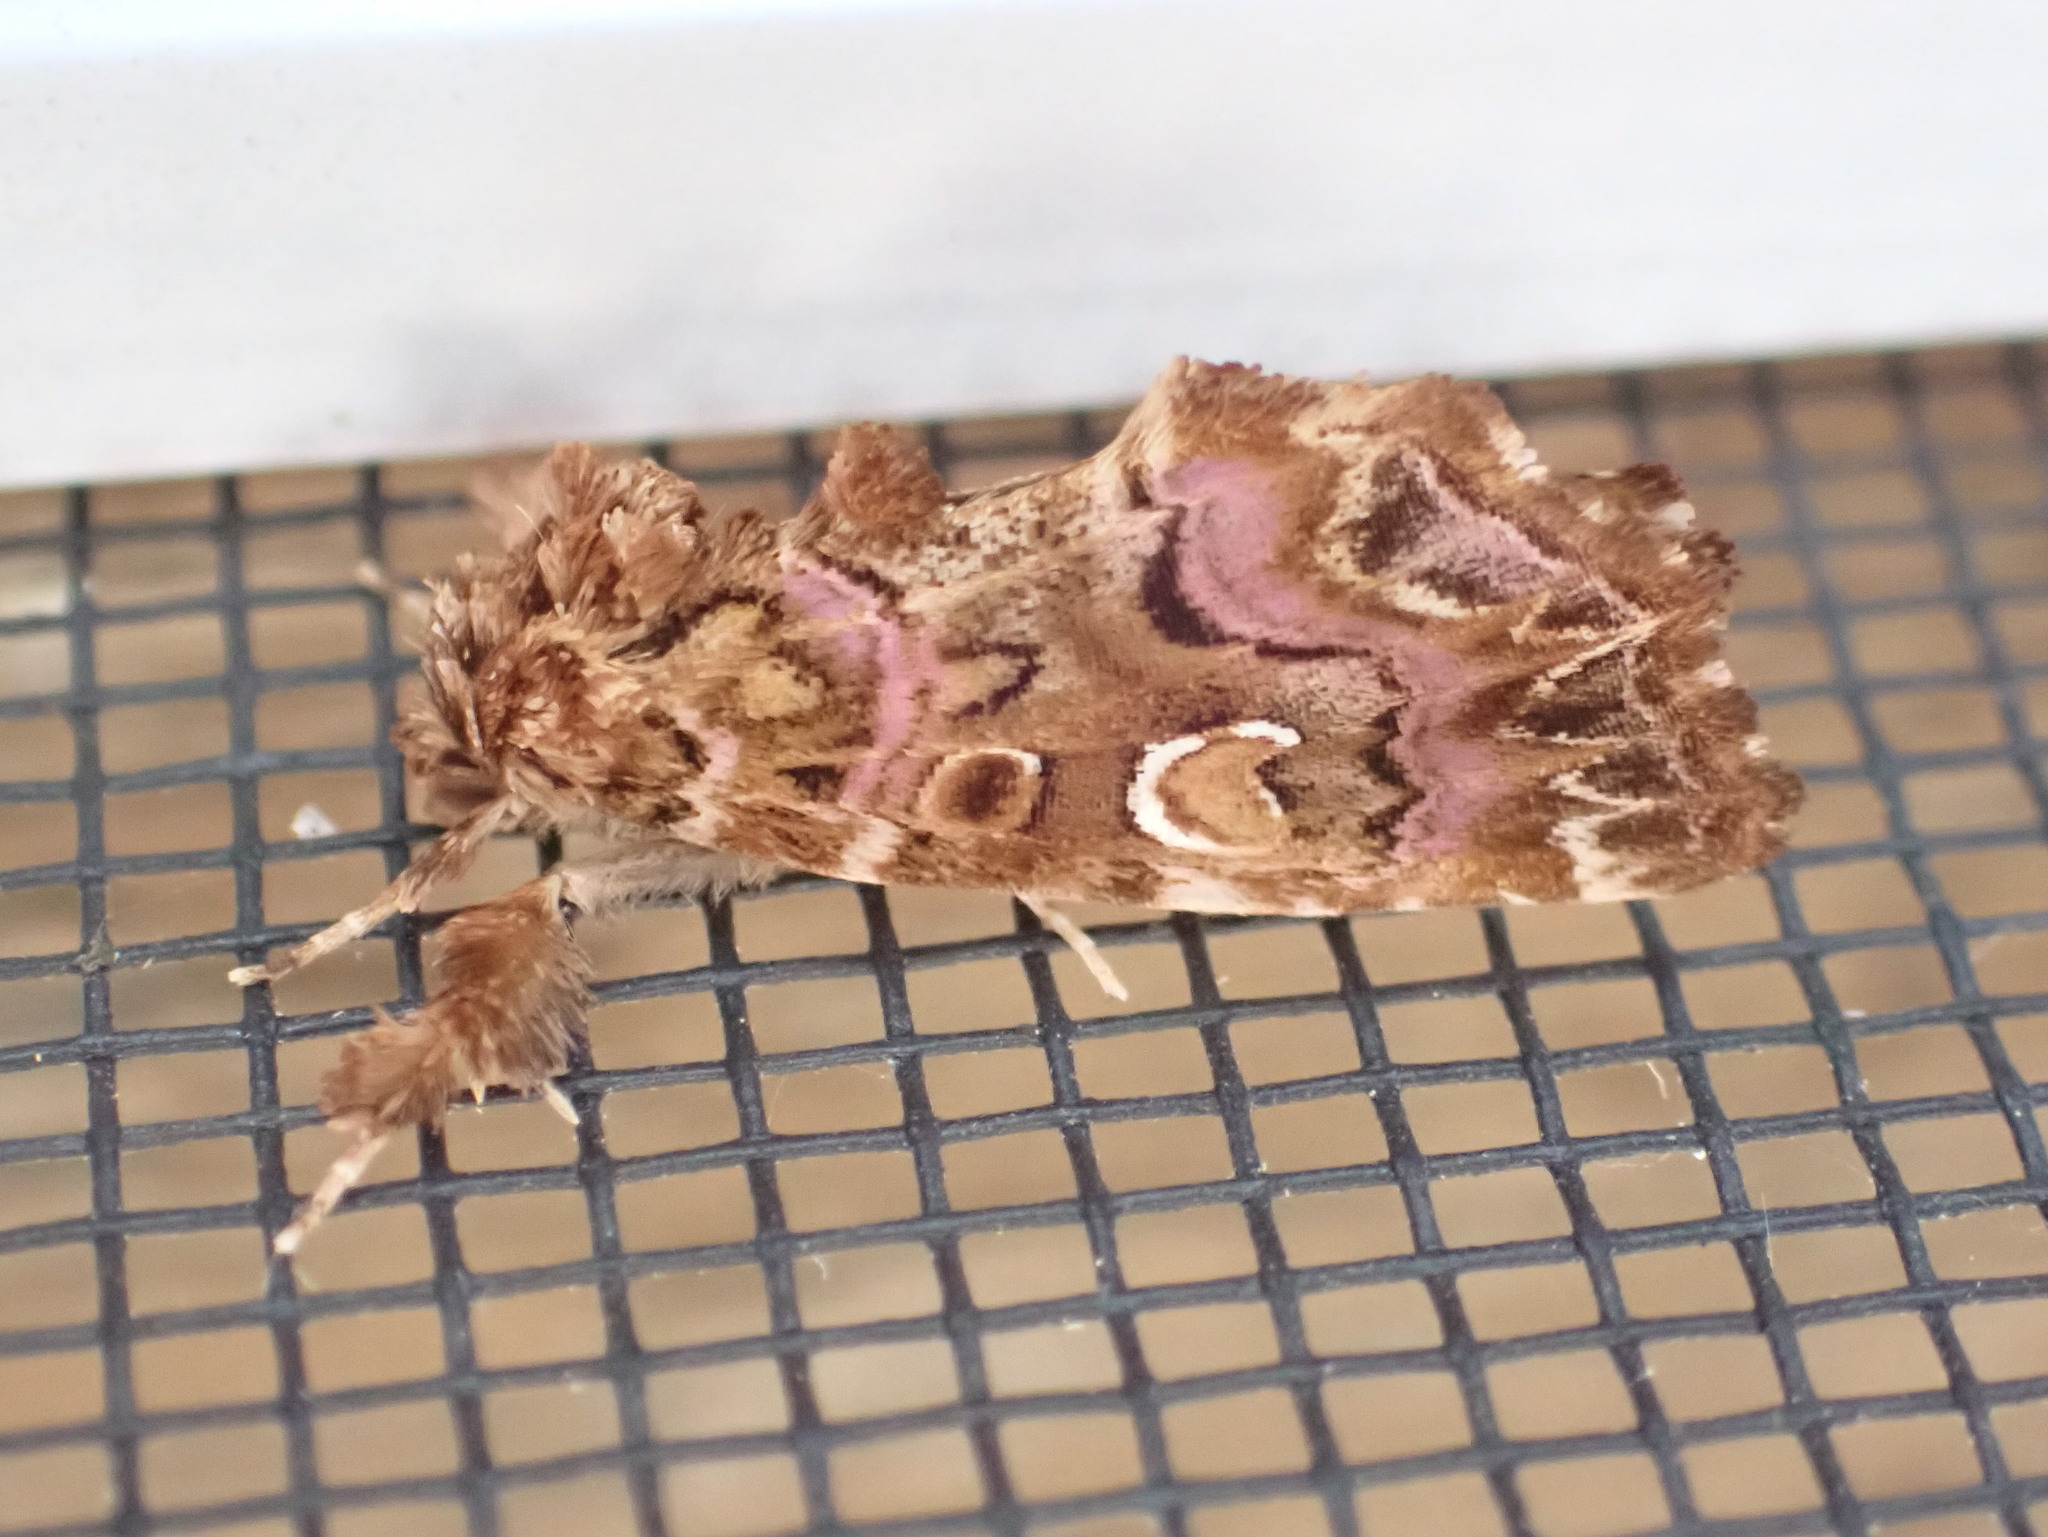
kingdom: Animalia
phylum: Arthropoda
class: Insecta
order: Lepidoptera
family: Noctuidae
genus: Callopistria
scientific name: Callopistria mollissima
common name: Pink-shaded fern moth
